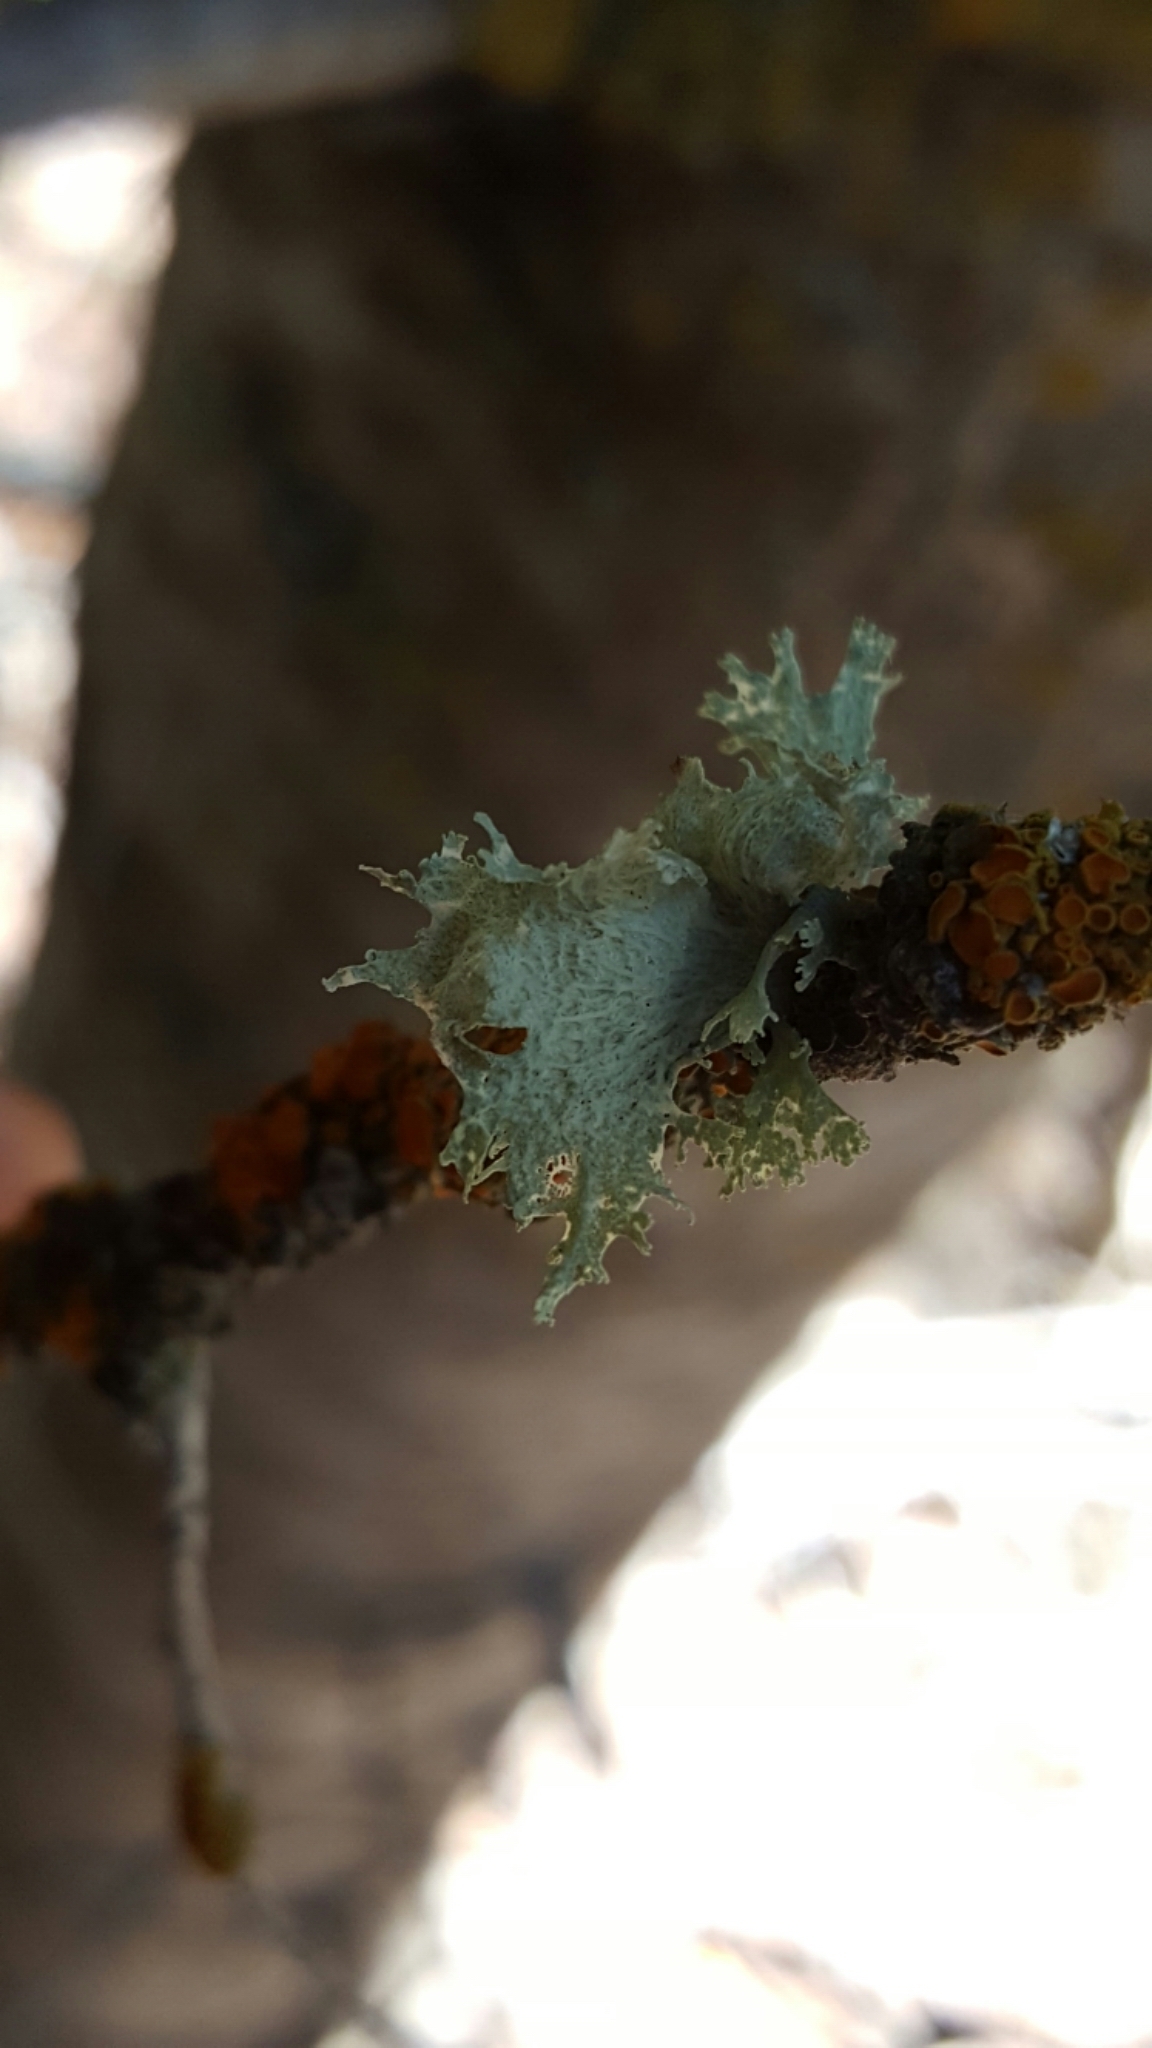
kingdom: Fungi
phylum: Ascomycota
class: Lecanoromycetes
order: Lecanorales
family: Ramalinaceae
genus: Ramalina
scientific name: Ramalina sinensis
